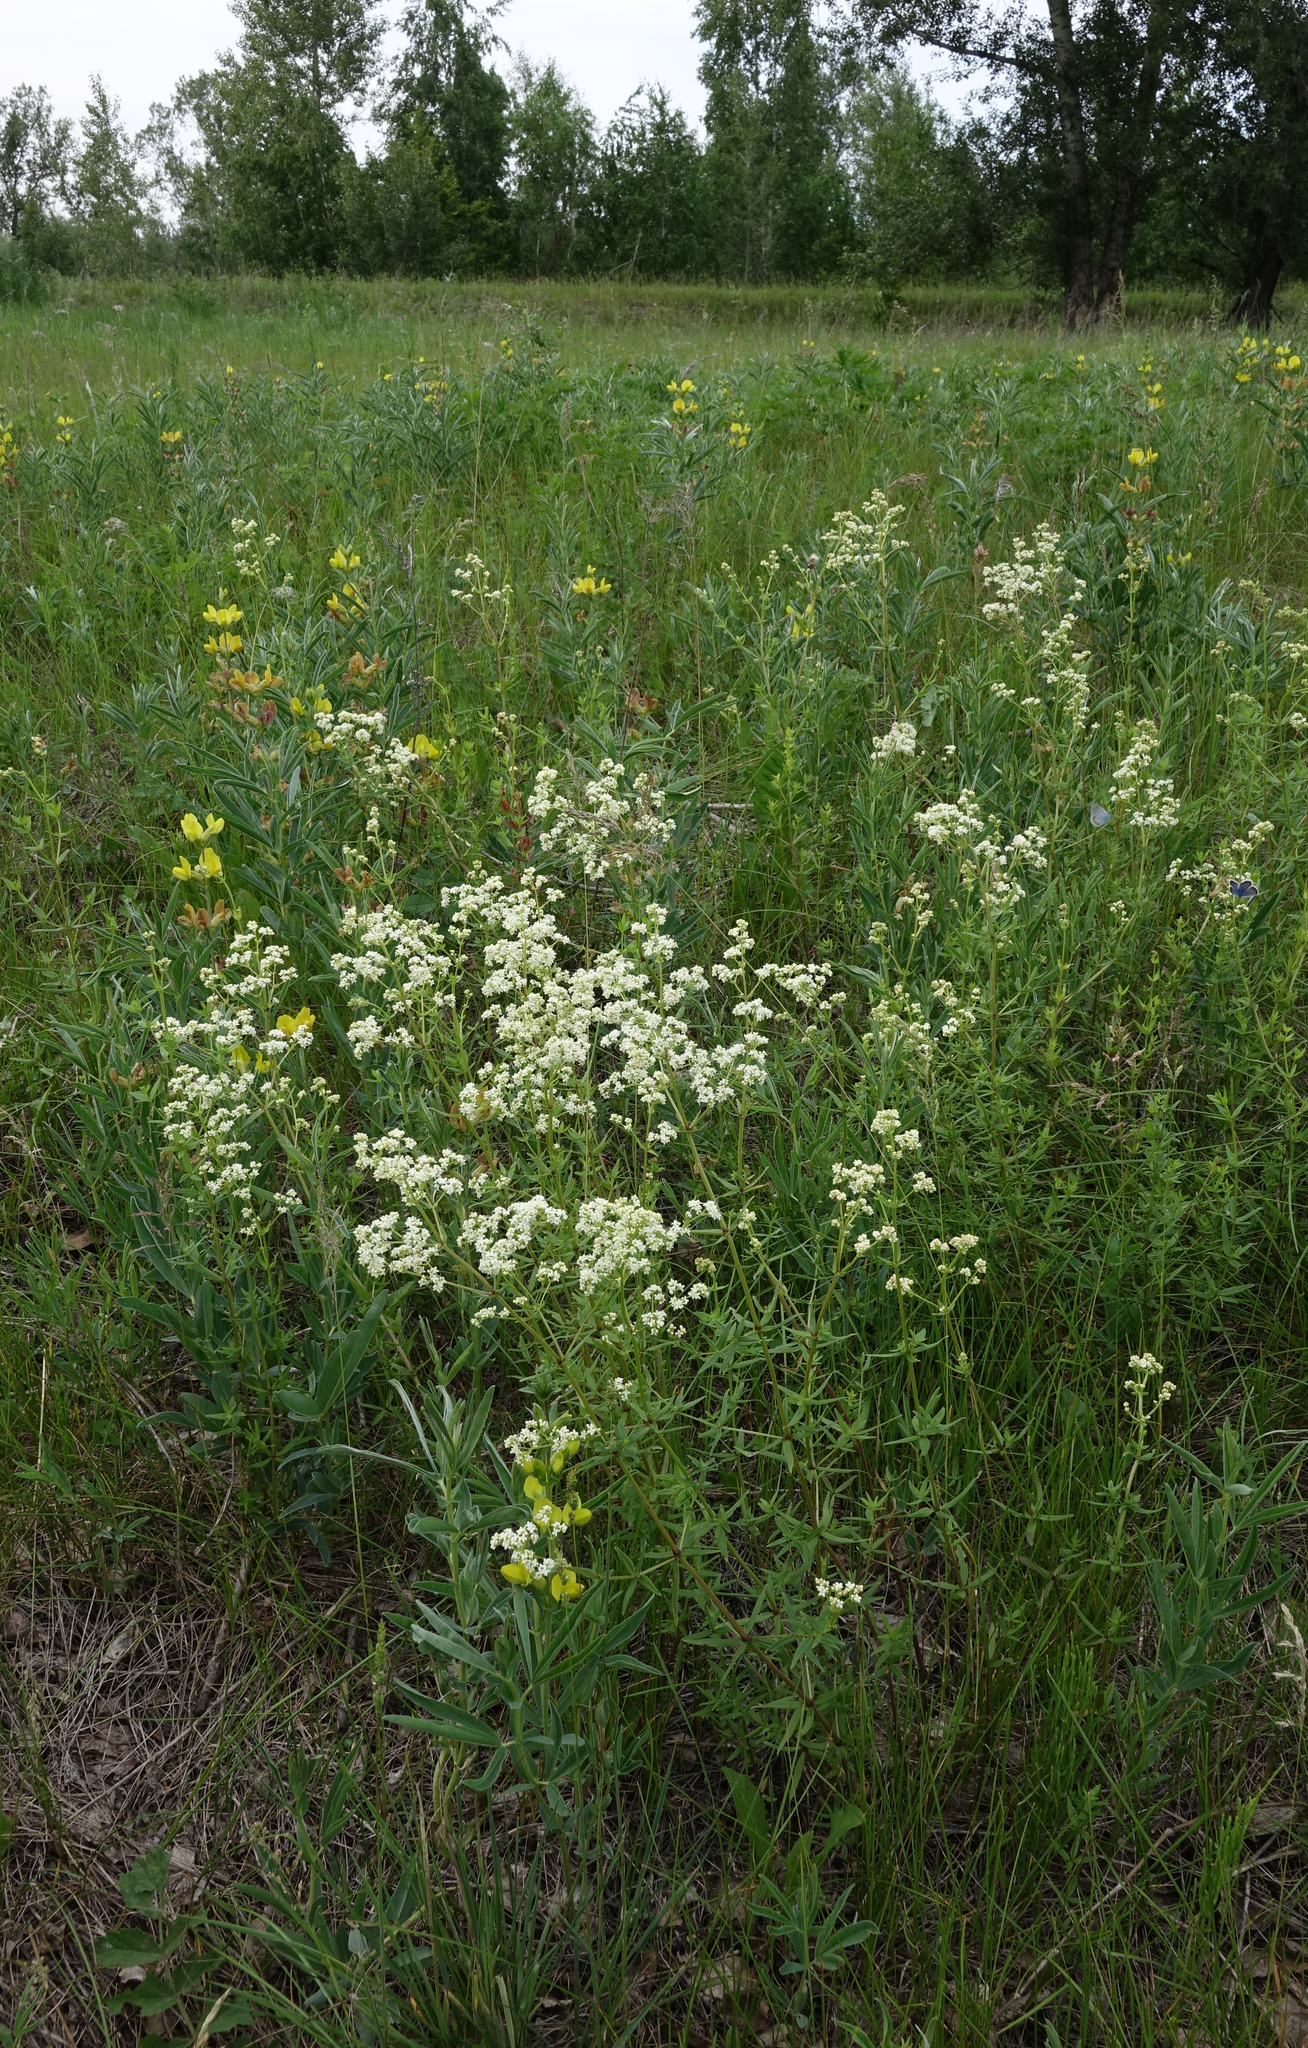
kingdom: Plantae
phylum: Tracheophyta
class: Magnoliopsida
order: Gentianales
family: Rubiaceae
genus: Galium
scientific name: Galium boreale
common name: Northern bedstraw
